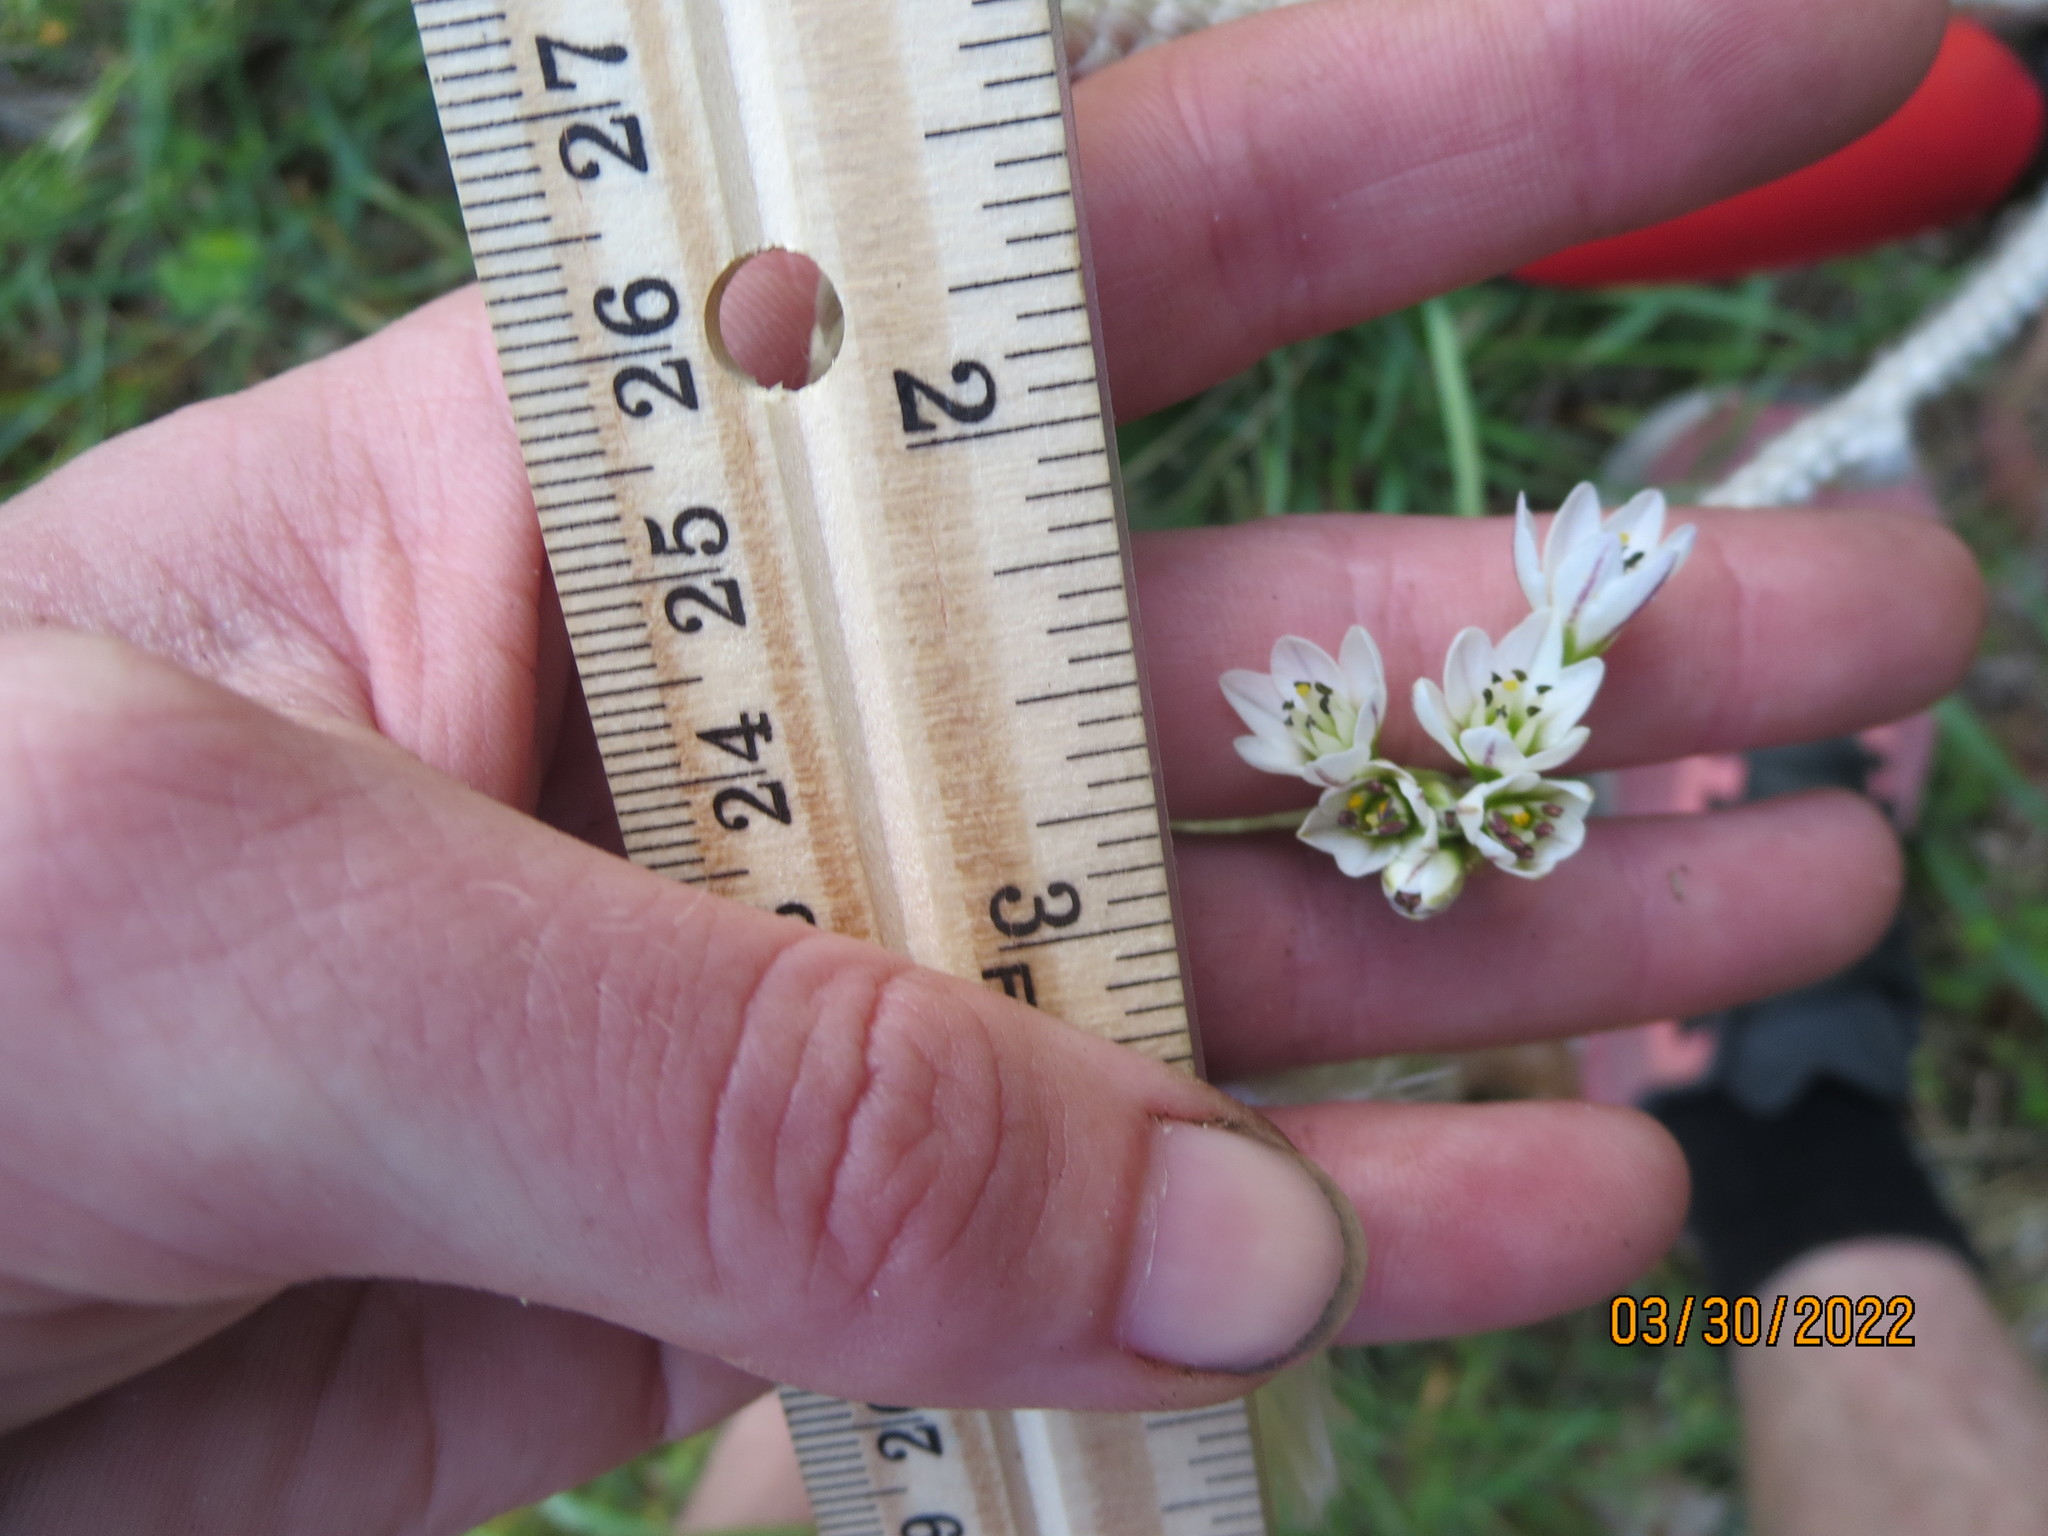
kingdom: Plantae
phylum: Tracheophyta
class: Liliopsida
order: Asparagales
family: Amaryllidaceae
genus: Nothoscordum
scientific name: Nothoscordum gracile
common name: Slender false garlic
